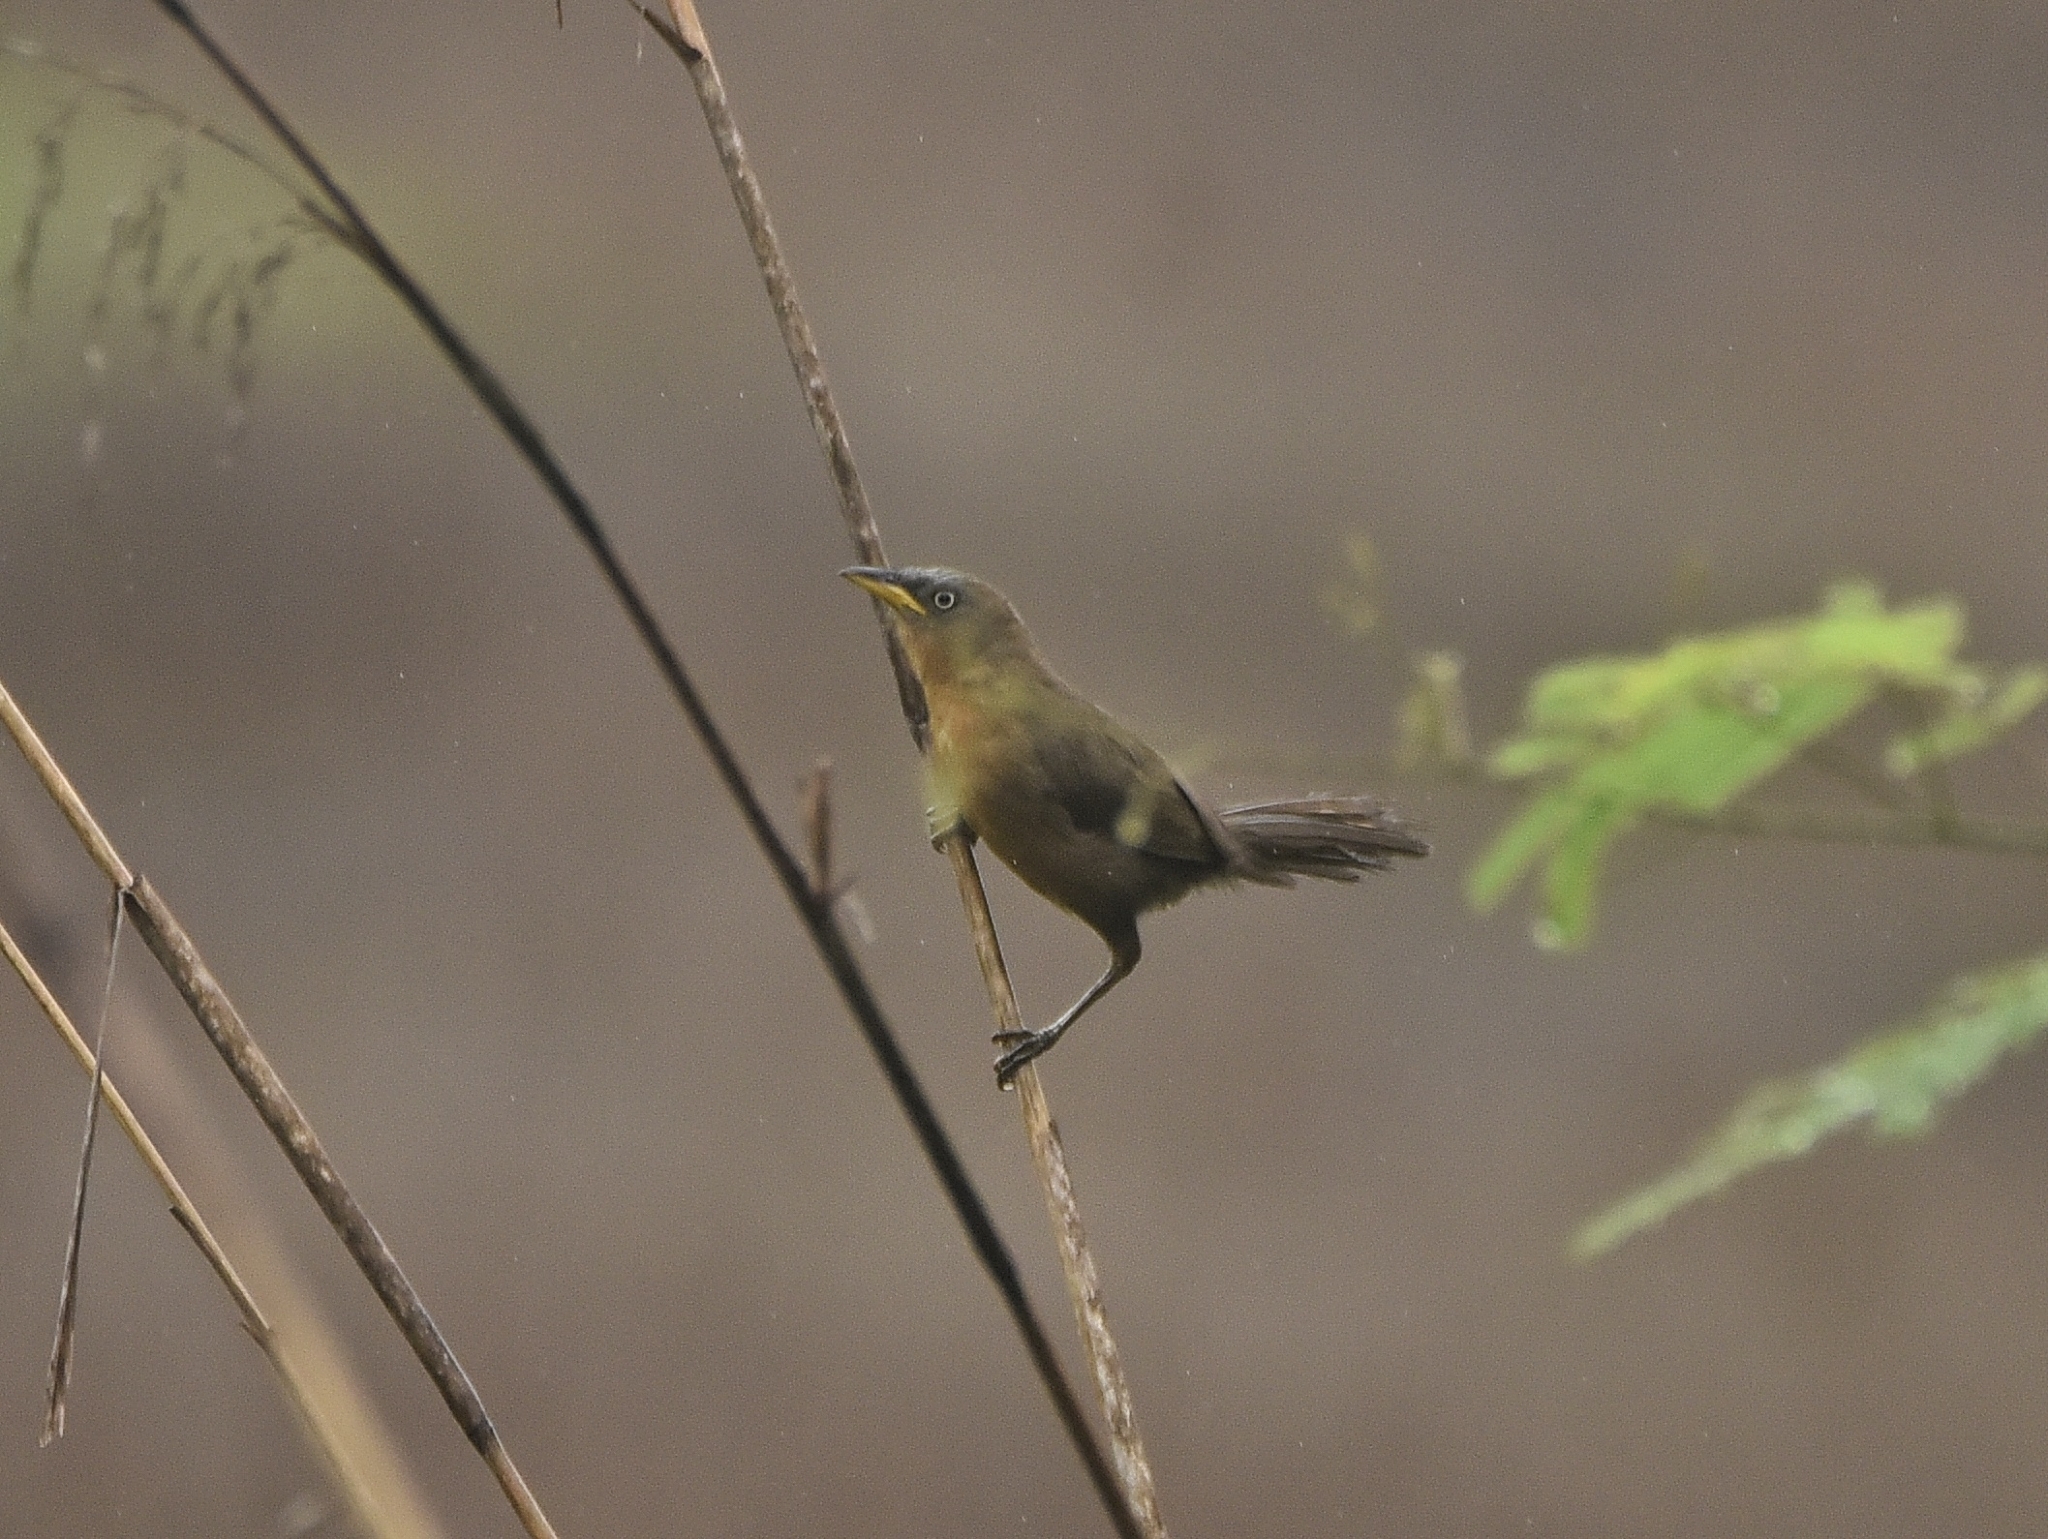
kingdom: Animalia
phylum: Chordata
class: Aves
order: Passeriformes
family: Leiothrichidae
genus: Turdoides
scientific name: Turdoides subrufa
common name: Rufous babbler
